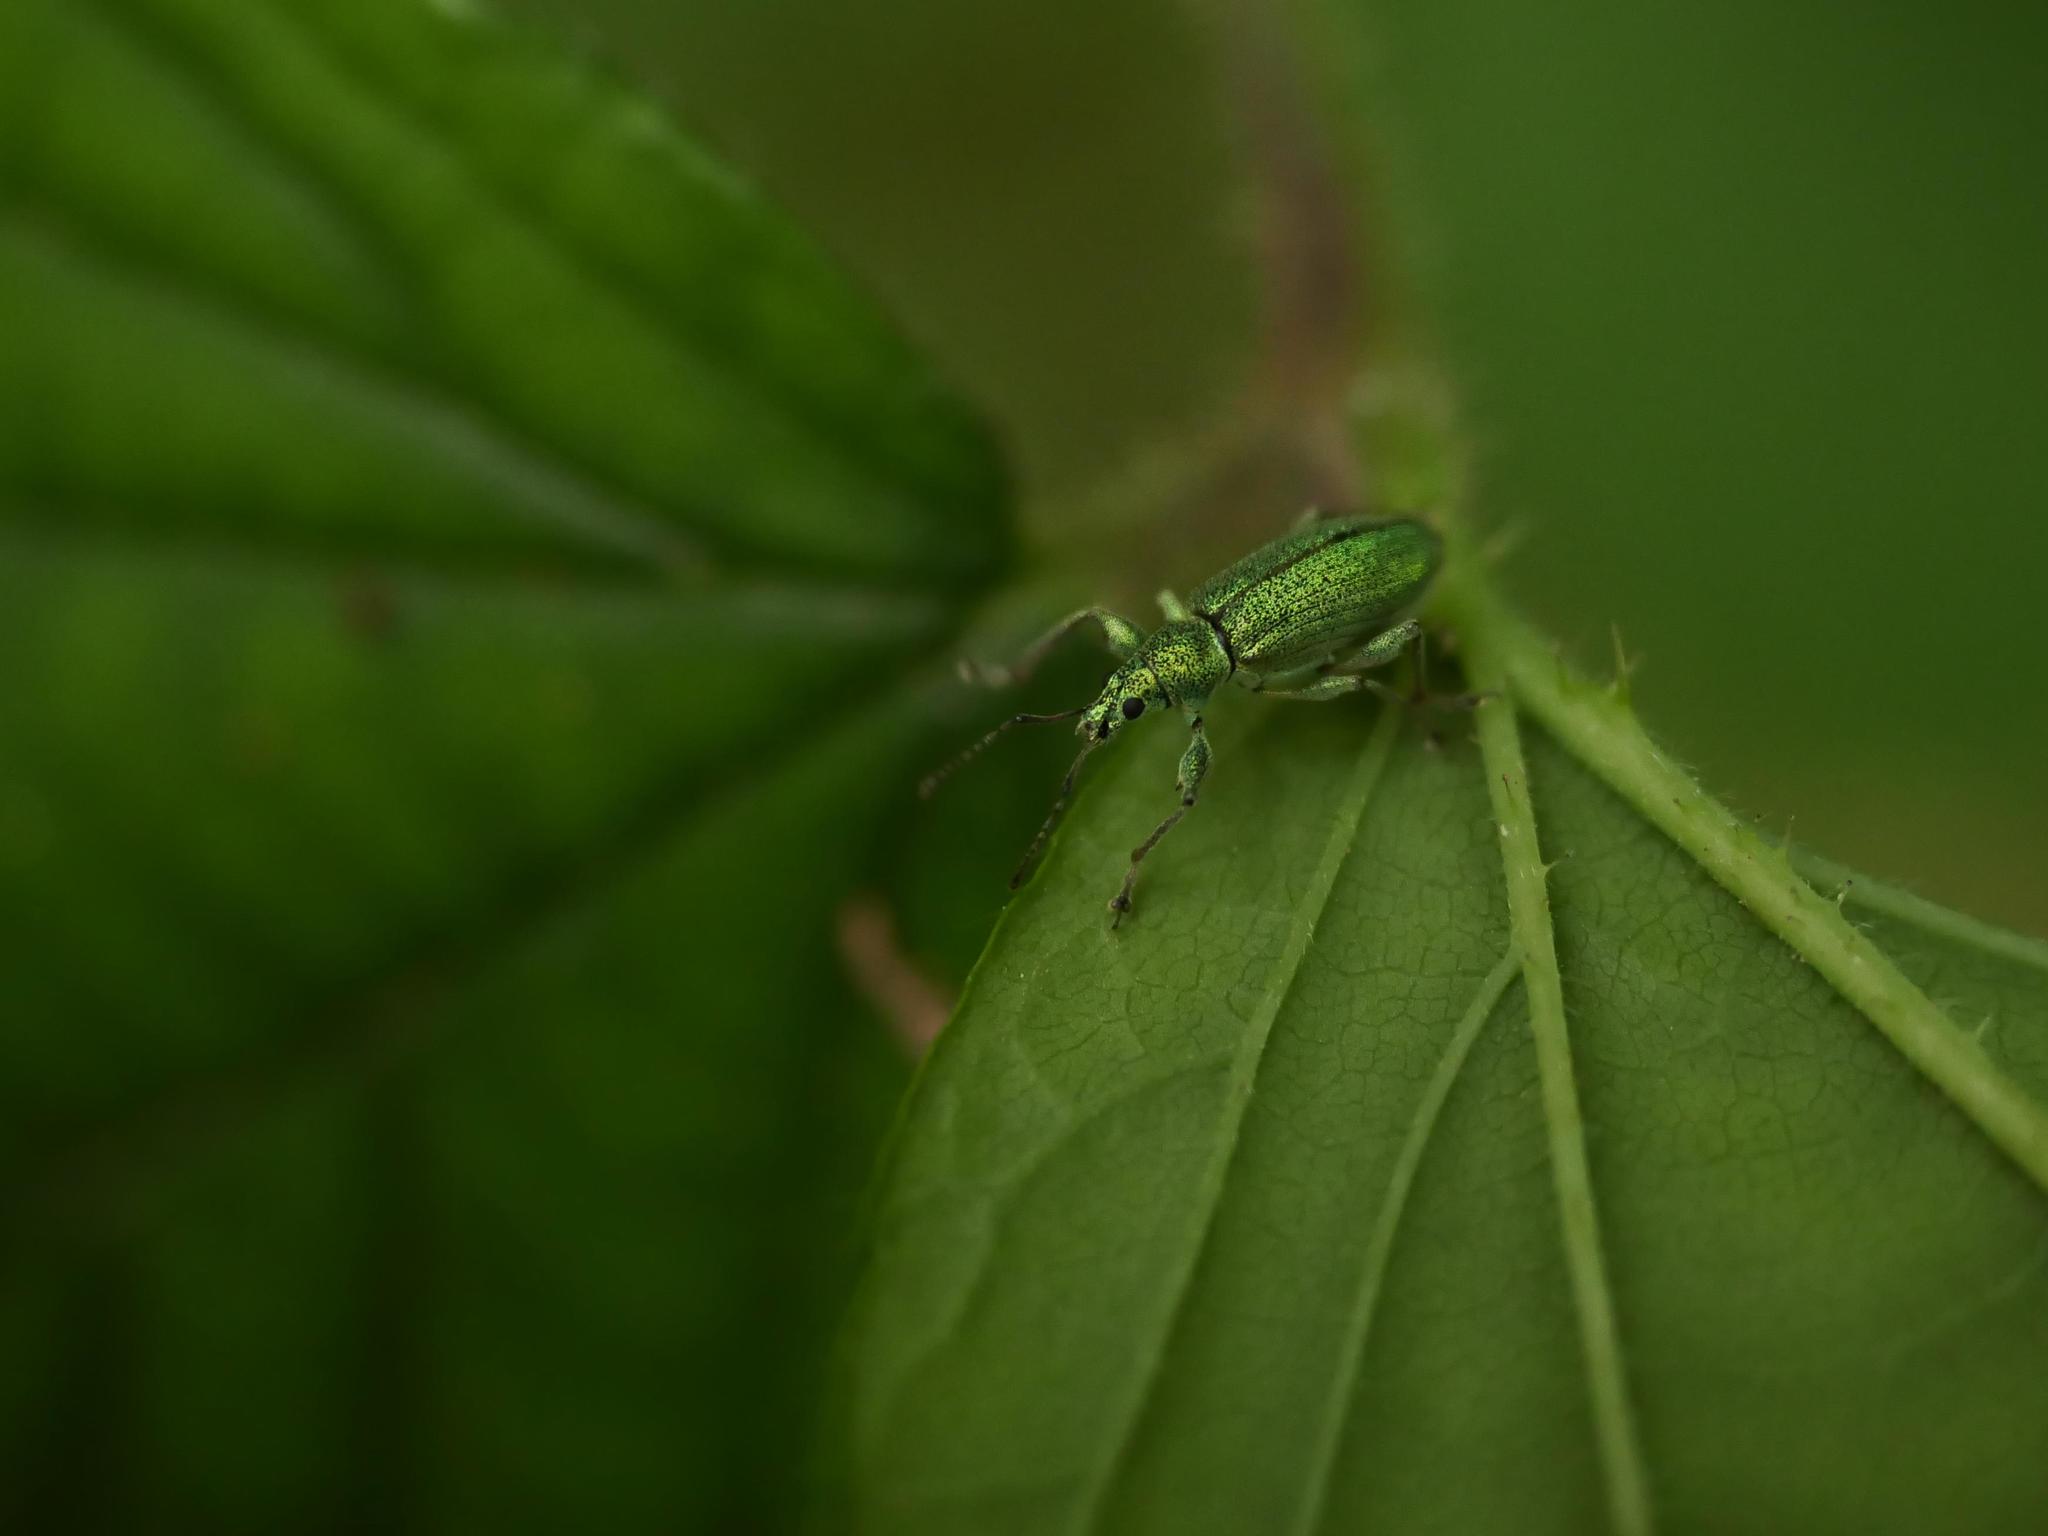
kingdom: Animalia
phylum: Arthropoda
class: Insecta
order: Coleoptera
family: Curculionidae
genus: Phyllobius
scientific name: Phyllobius arborator
